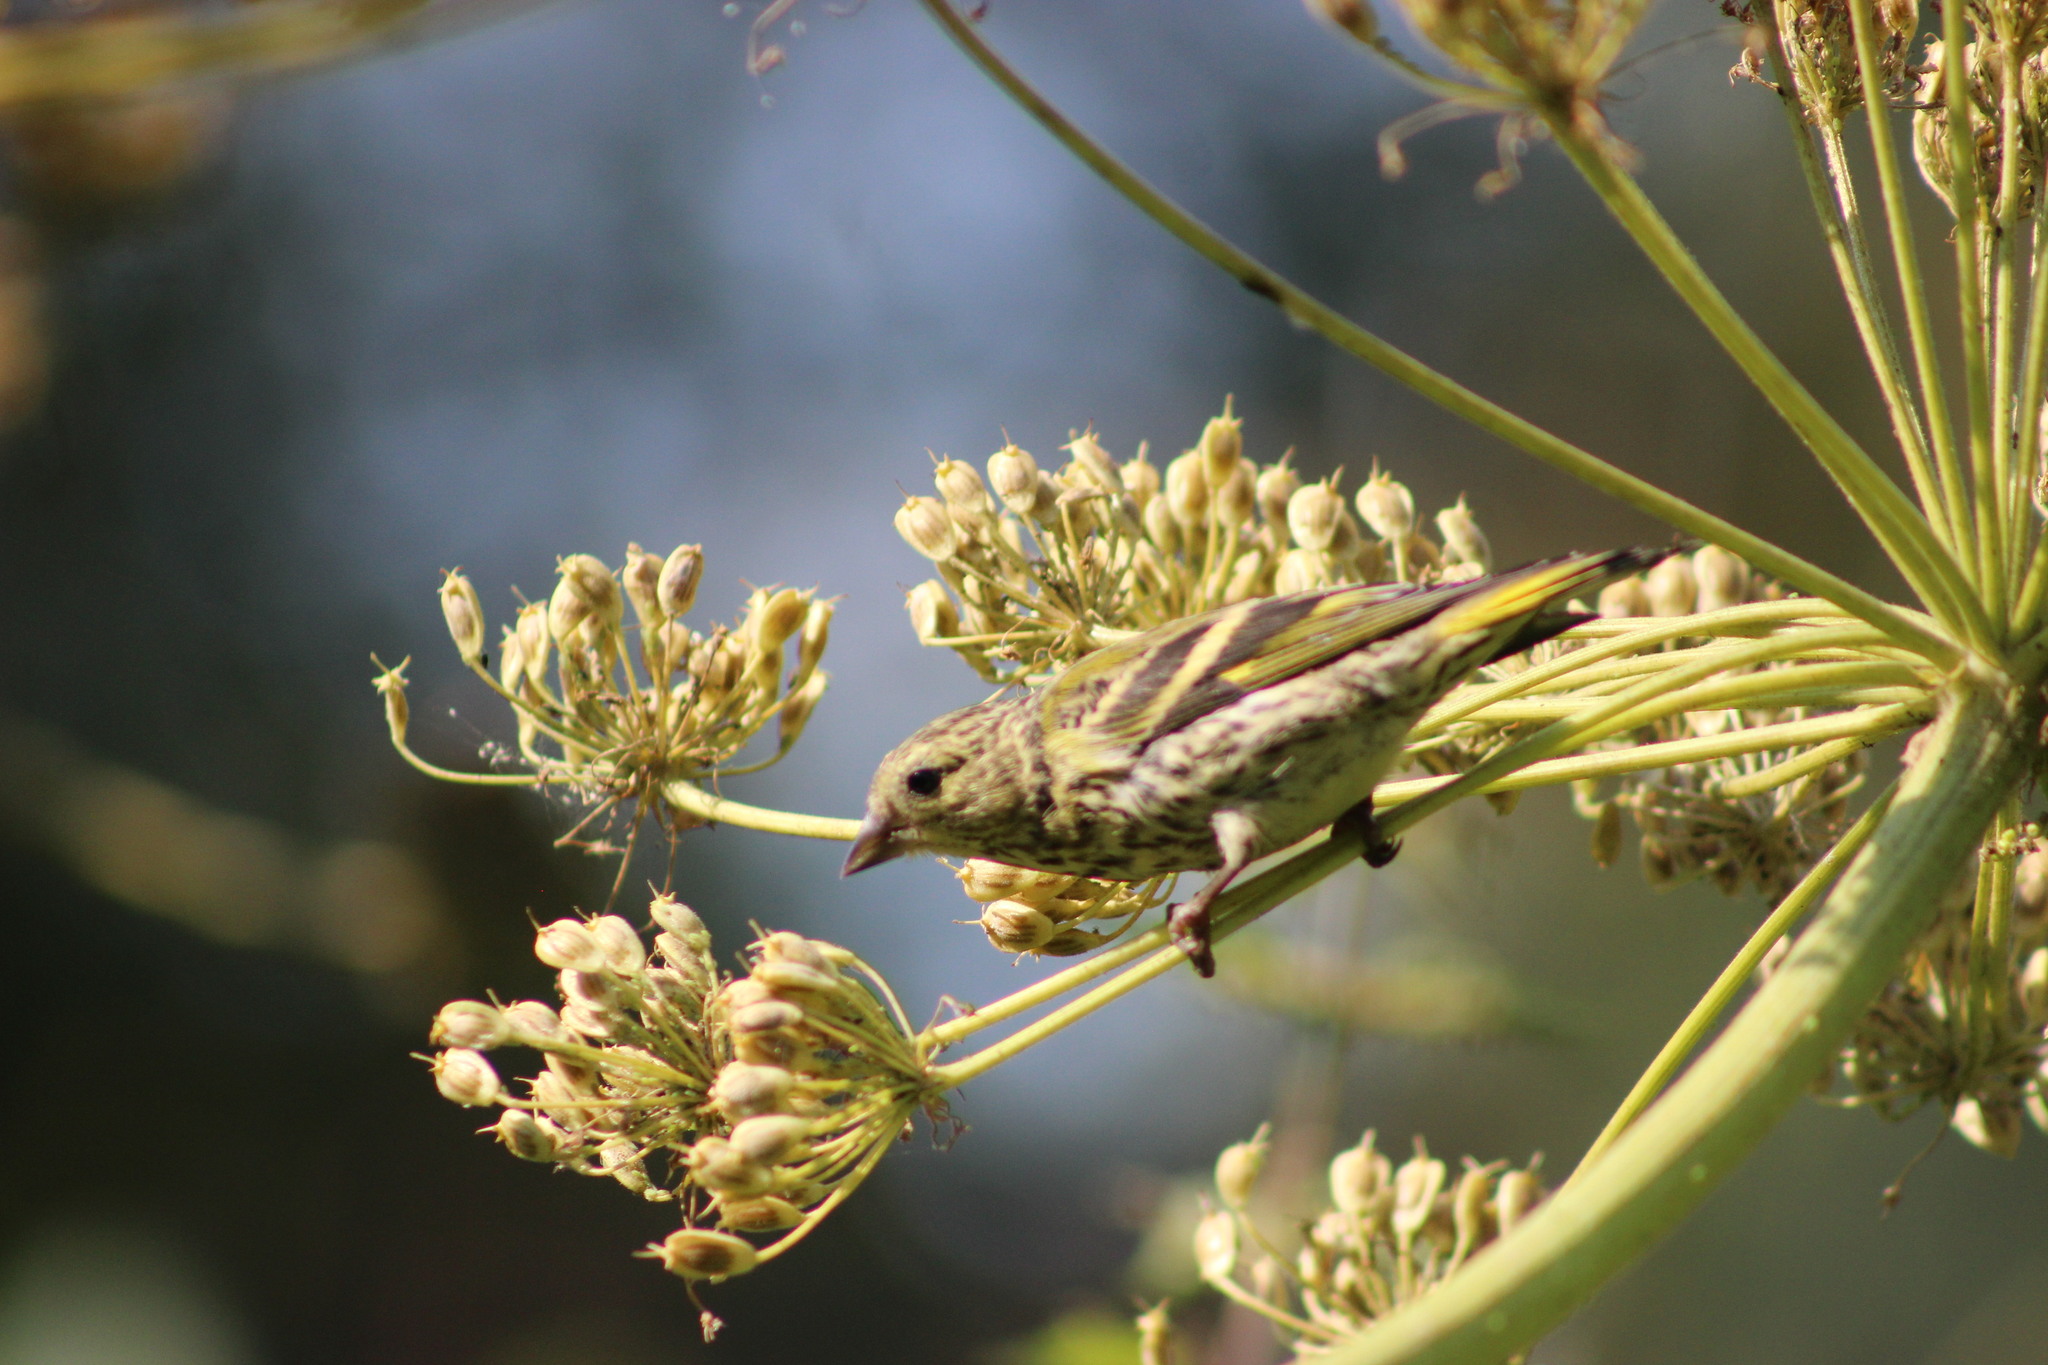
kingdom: Animalia
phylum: Chordata
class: Aves
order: Passeriformes
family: Fringillidae
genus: Spinus
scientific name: Spinus spinus
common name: Eurasian siskin
